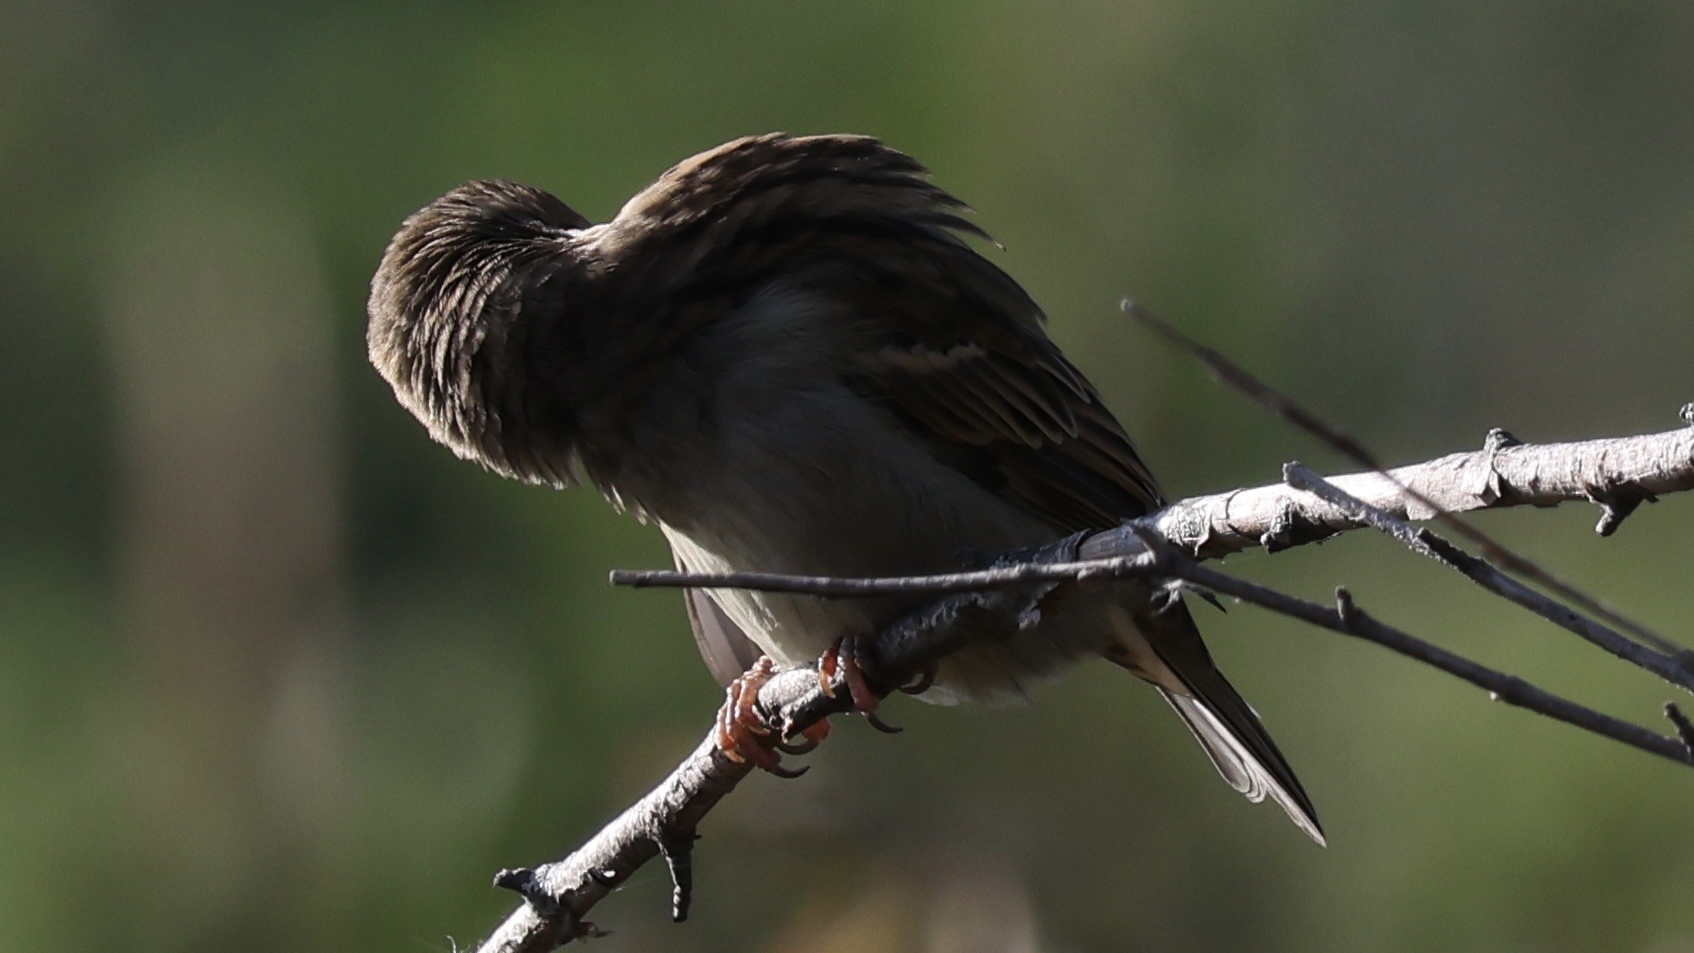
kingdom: Animalia
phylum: Chordata
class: Aves
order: Passeriformes
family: Passeridae
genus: Passer
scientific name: Passer domesticus
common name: House sparrow
